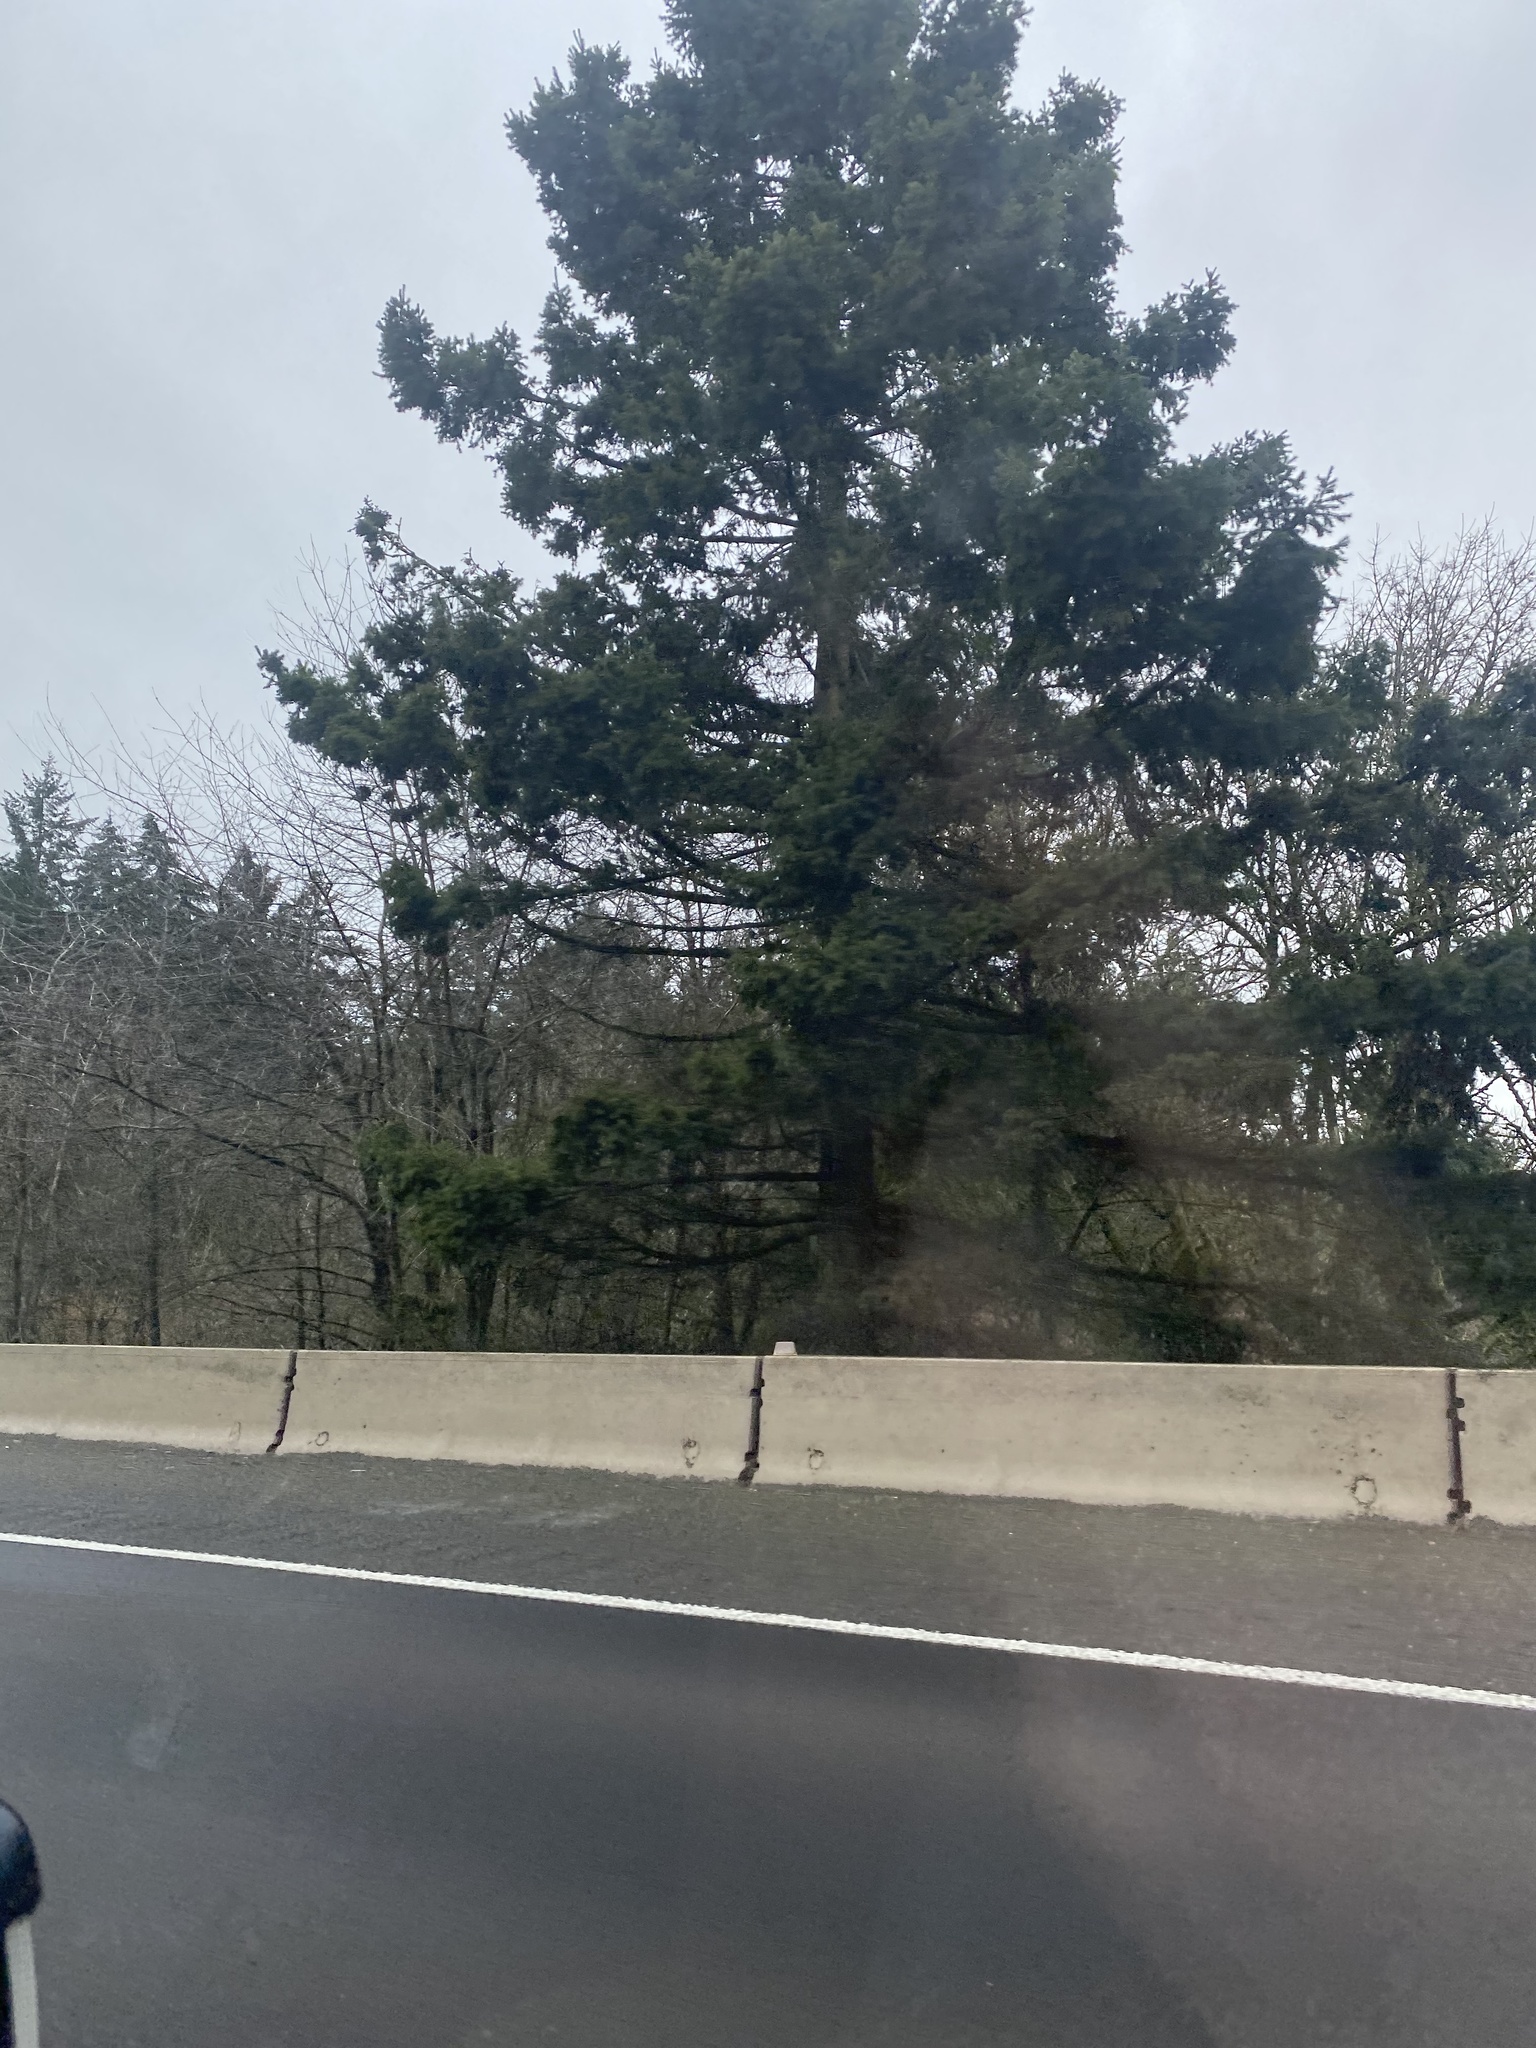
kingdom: Plantae
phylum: Tracheophyta
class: Pinopsida
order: Pinales
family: Pinaceae
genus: Pseudotsuga
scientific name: Pseudotsuga menziesii
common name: Douglas fir
